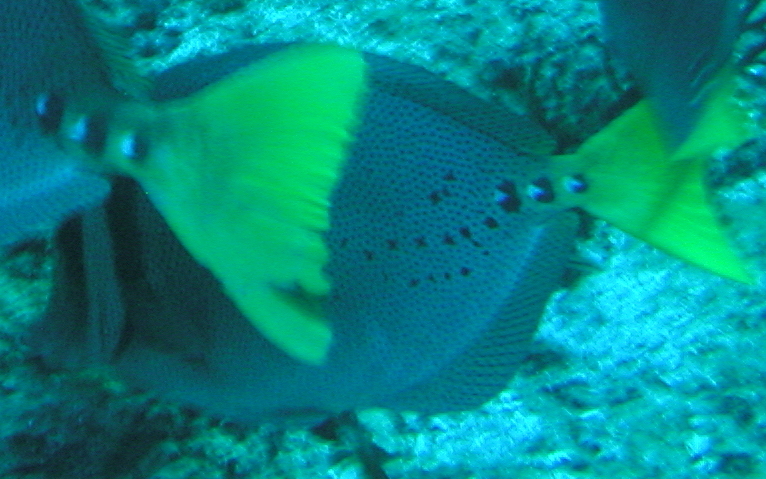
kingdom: Animalia
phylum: Chordata
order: Perciformes
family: Acanthuridae
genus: Prionurus
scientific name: Prionurus laticlavius
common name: Razor surgeonfish
